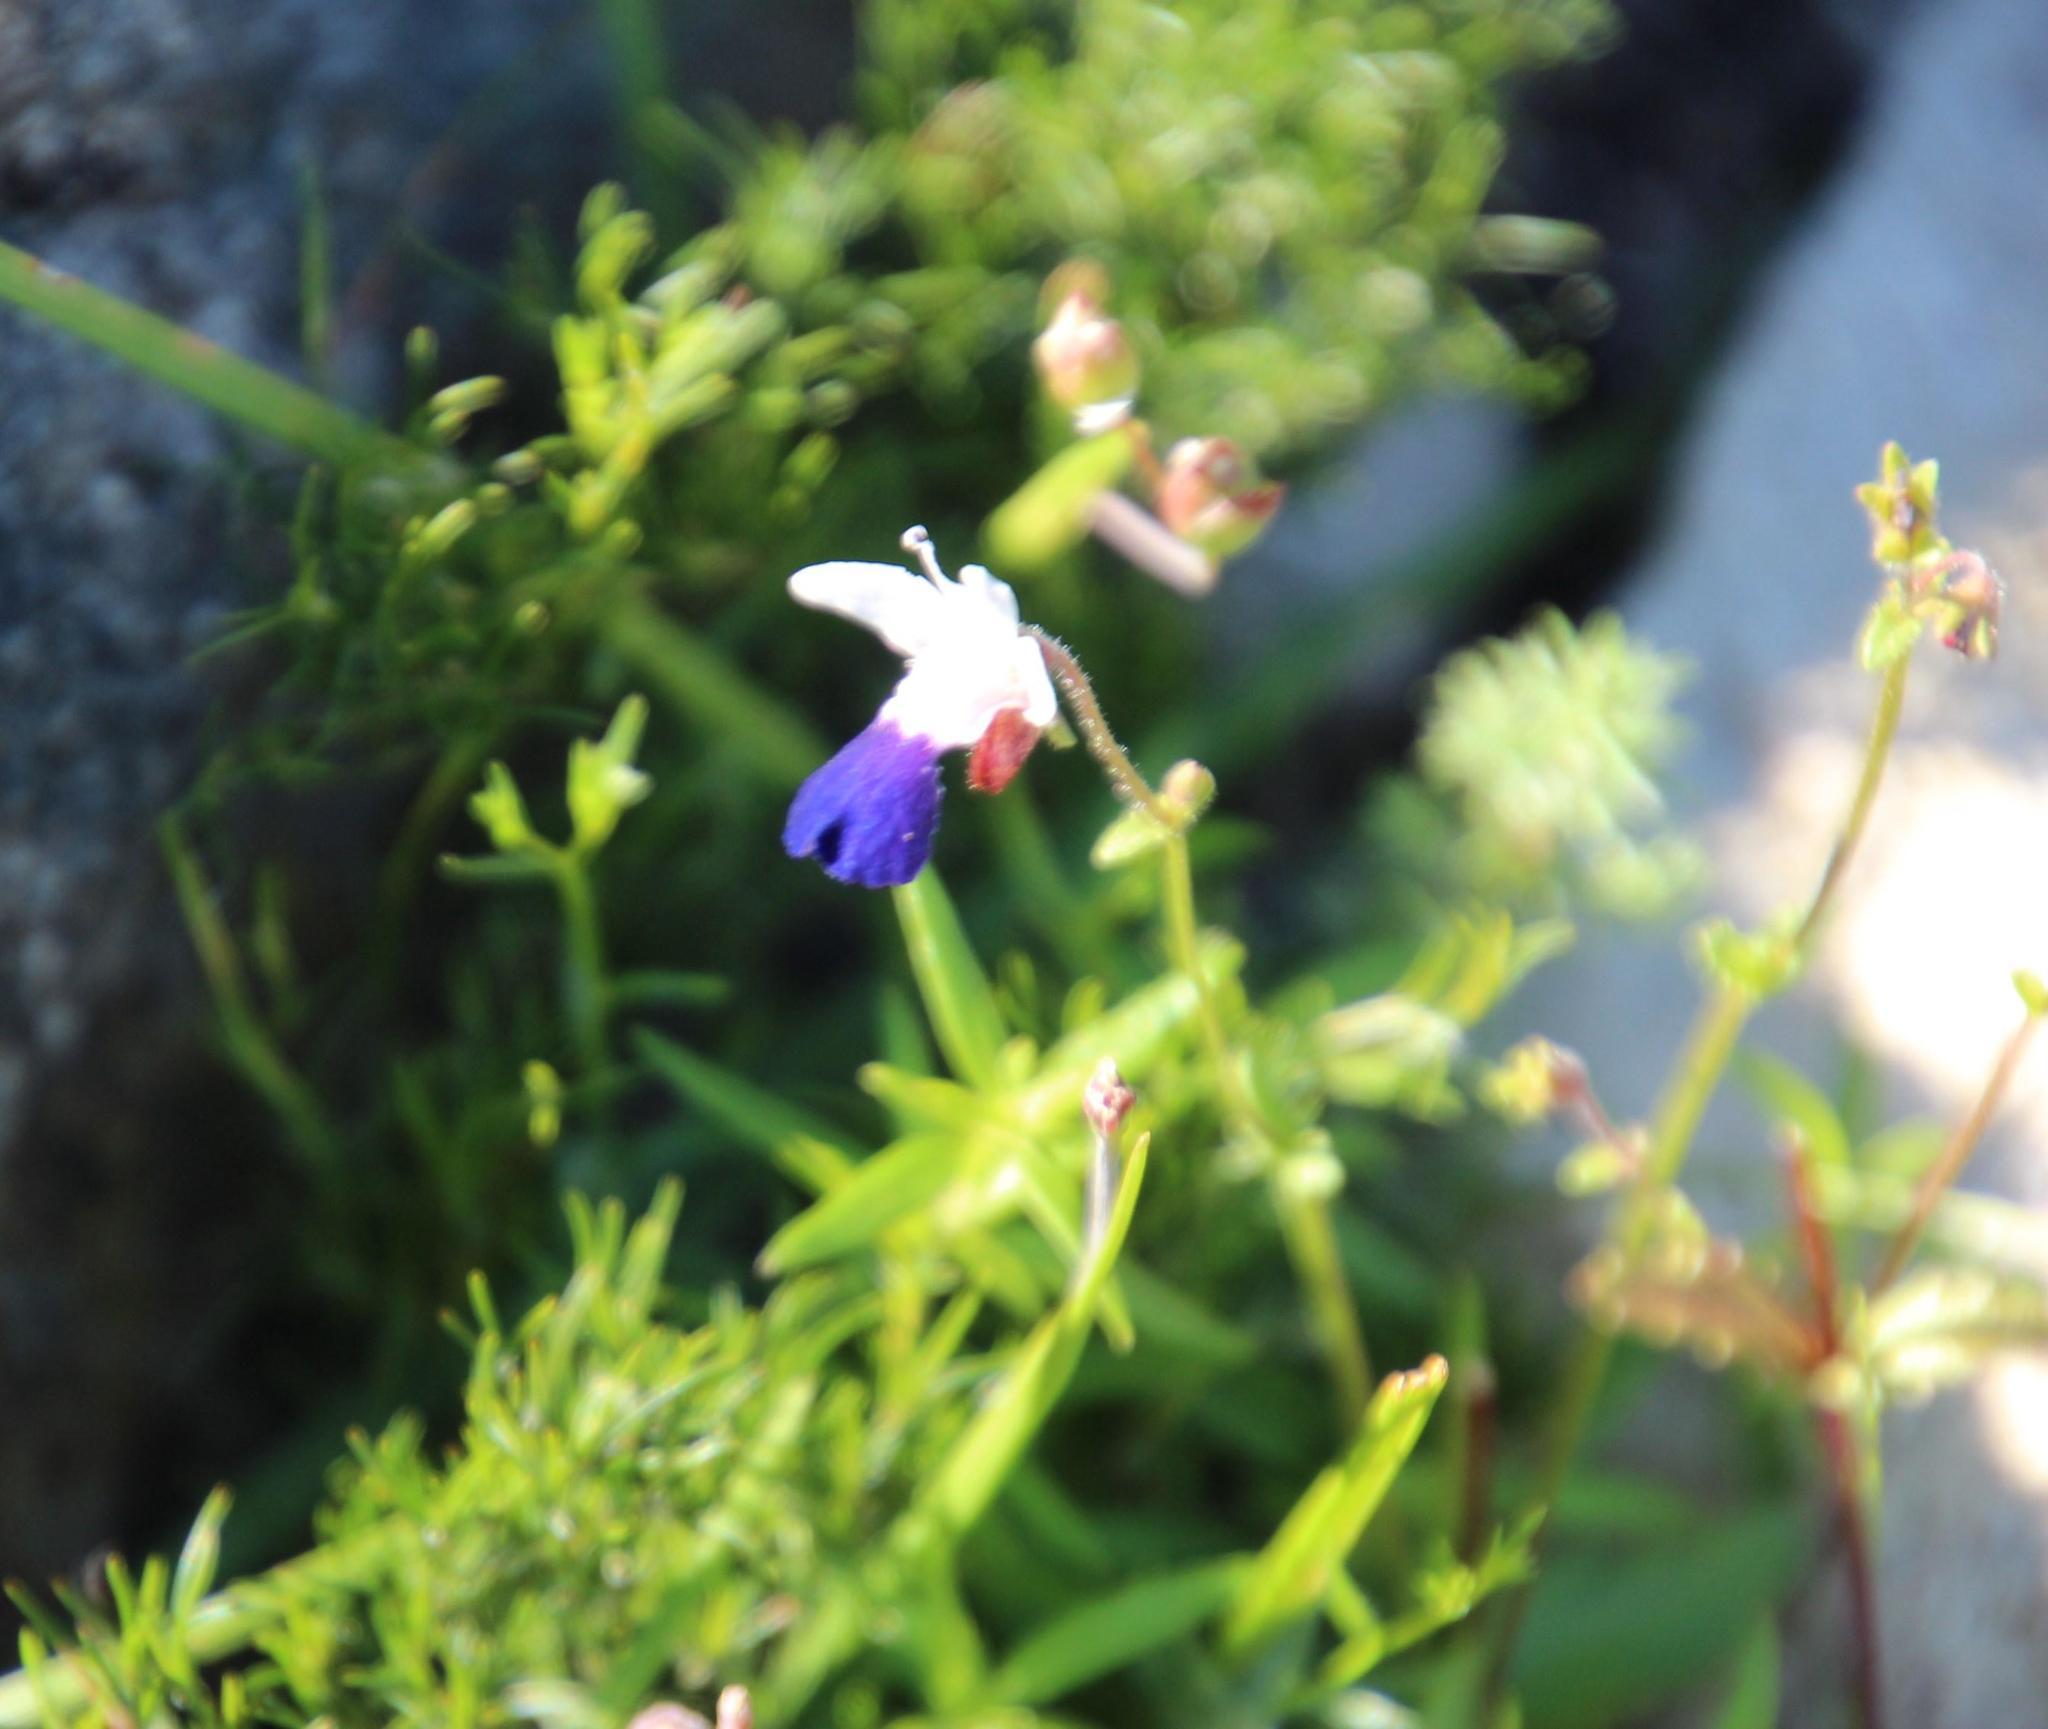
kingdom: Plantae
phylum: Tracheophyta
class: Magnoliopsida
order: Lamiales
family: Scrophulariaceae
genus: Nemesia
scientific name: Nemesia barbata
